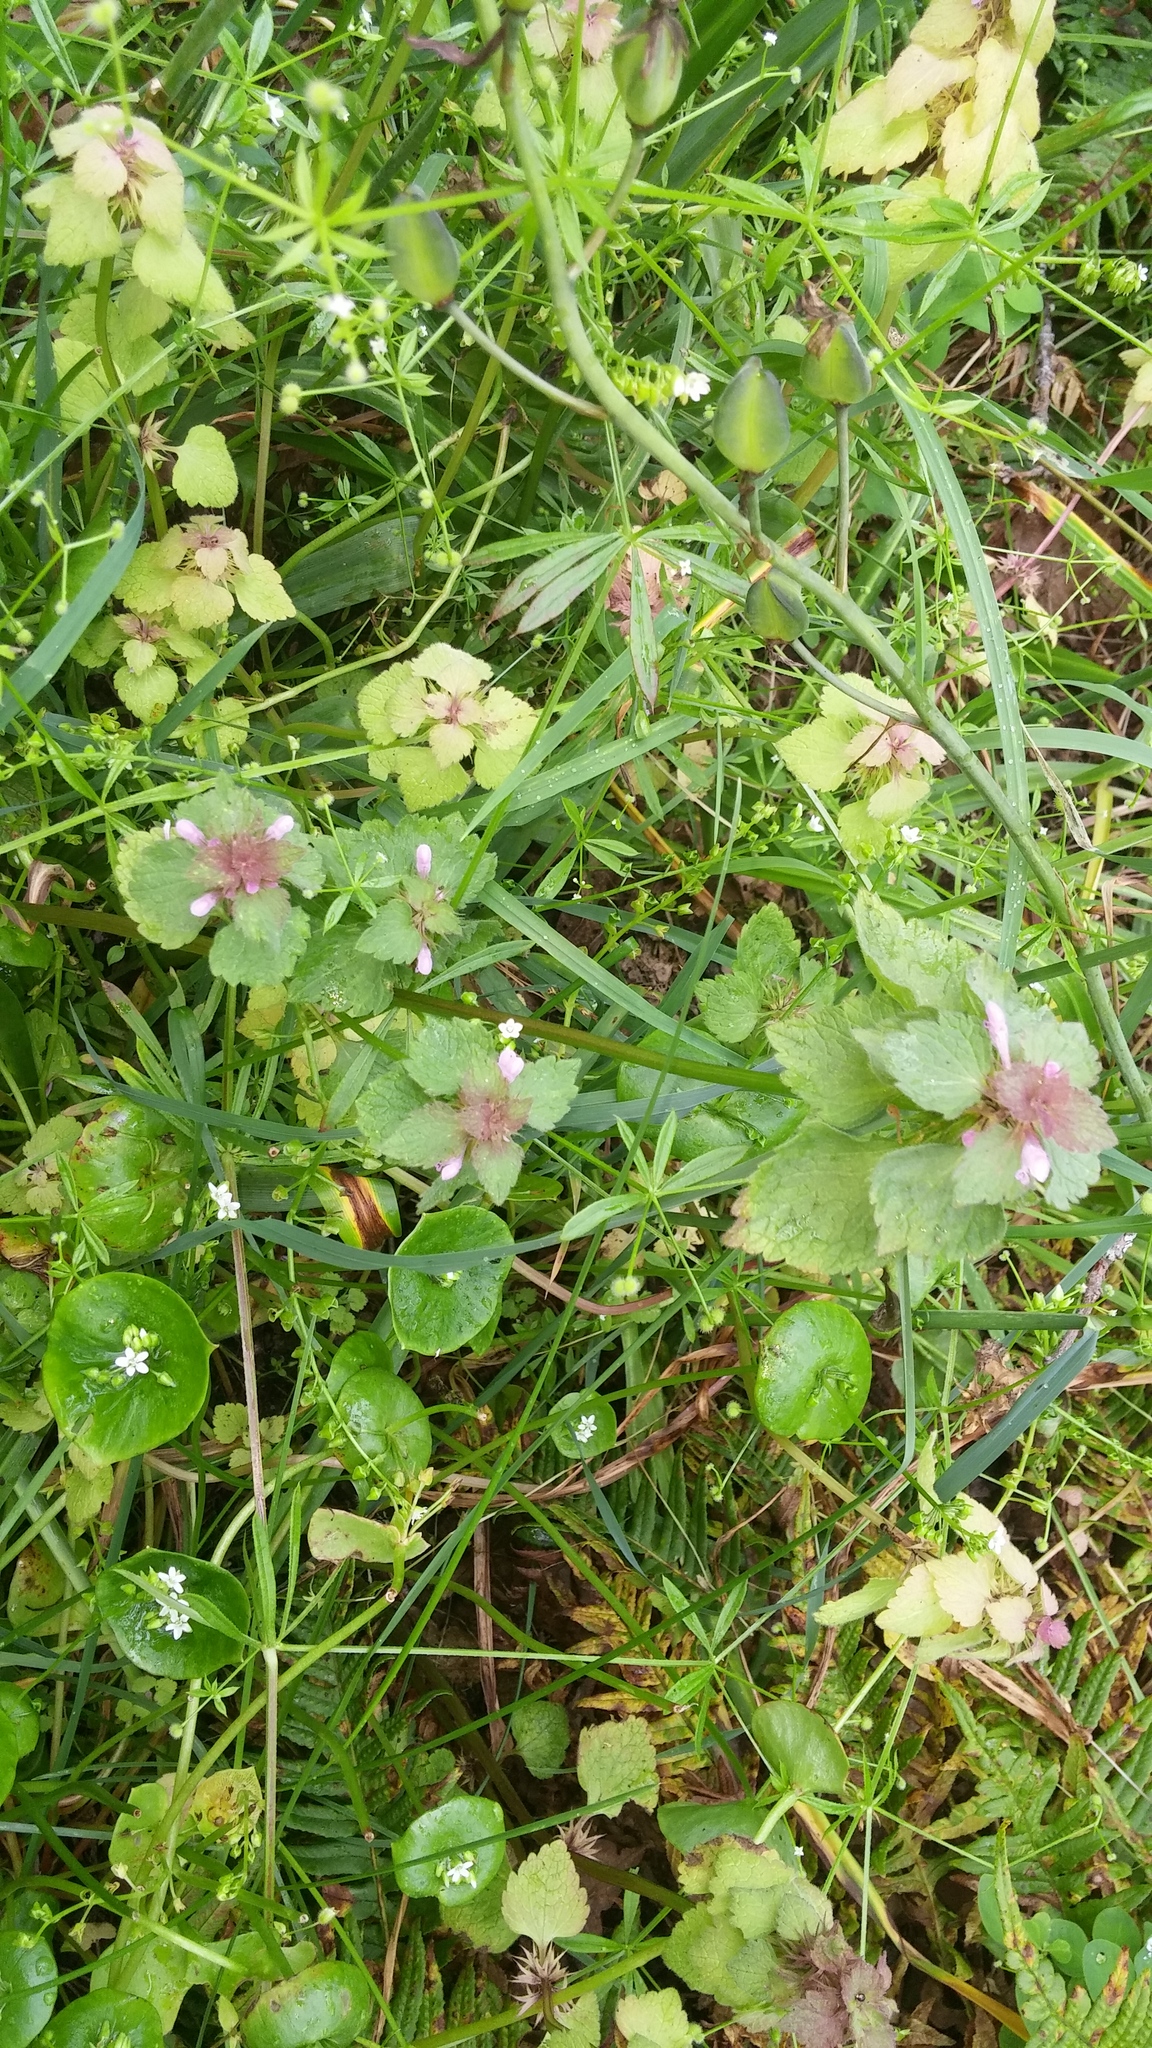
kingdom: Plantae
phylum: Tracheophyta
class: Magnoliopsida
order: Lamiales
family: Lamiaceae
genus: Lamium
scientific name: Lamium purpureum
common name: Red dead-nettle
